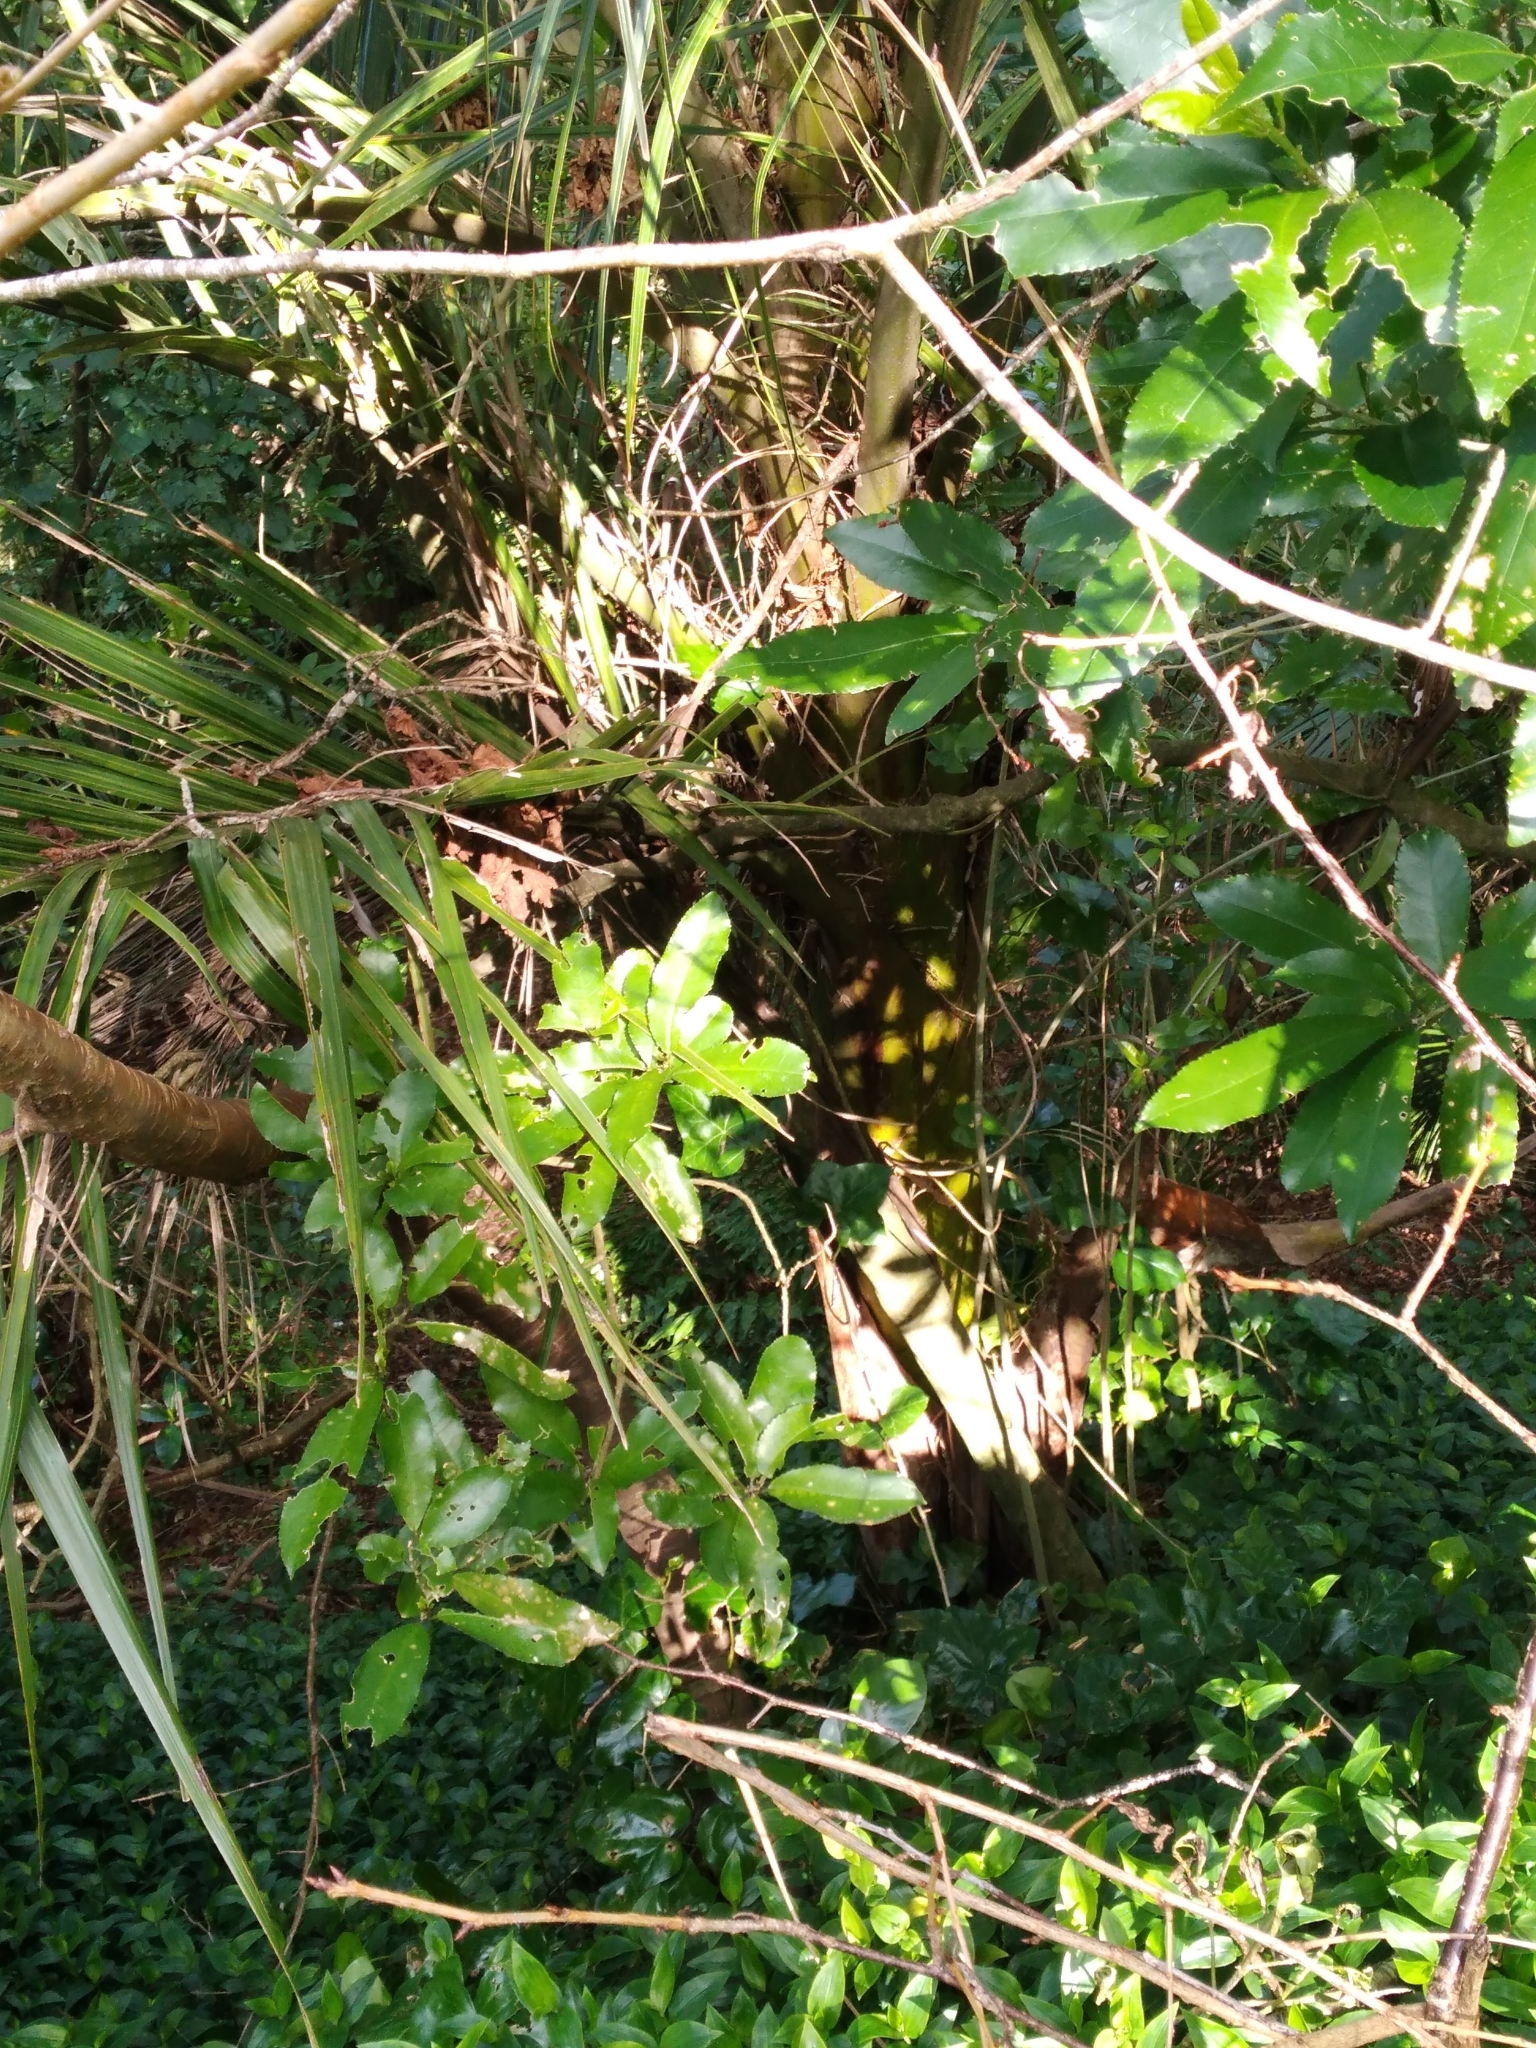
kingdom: Plantae
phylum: Tracheophyta
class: Liliopsida
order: Arecales
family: Arecaceae
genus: Rhopalostylis
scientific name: Rhopalostylis sapida
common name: Feather-duster palm
